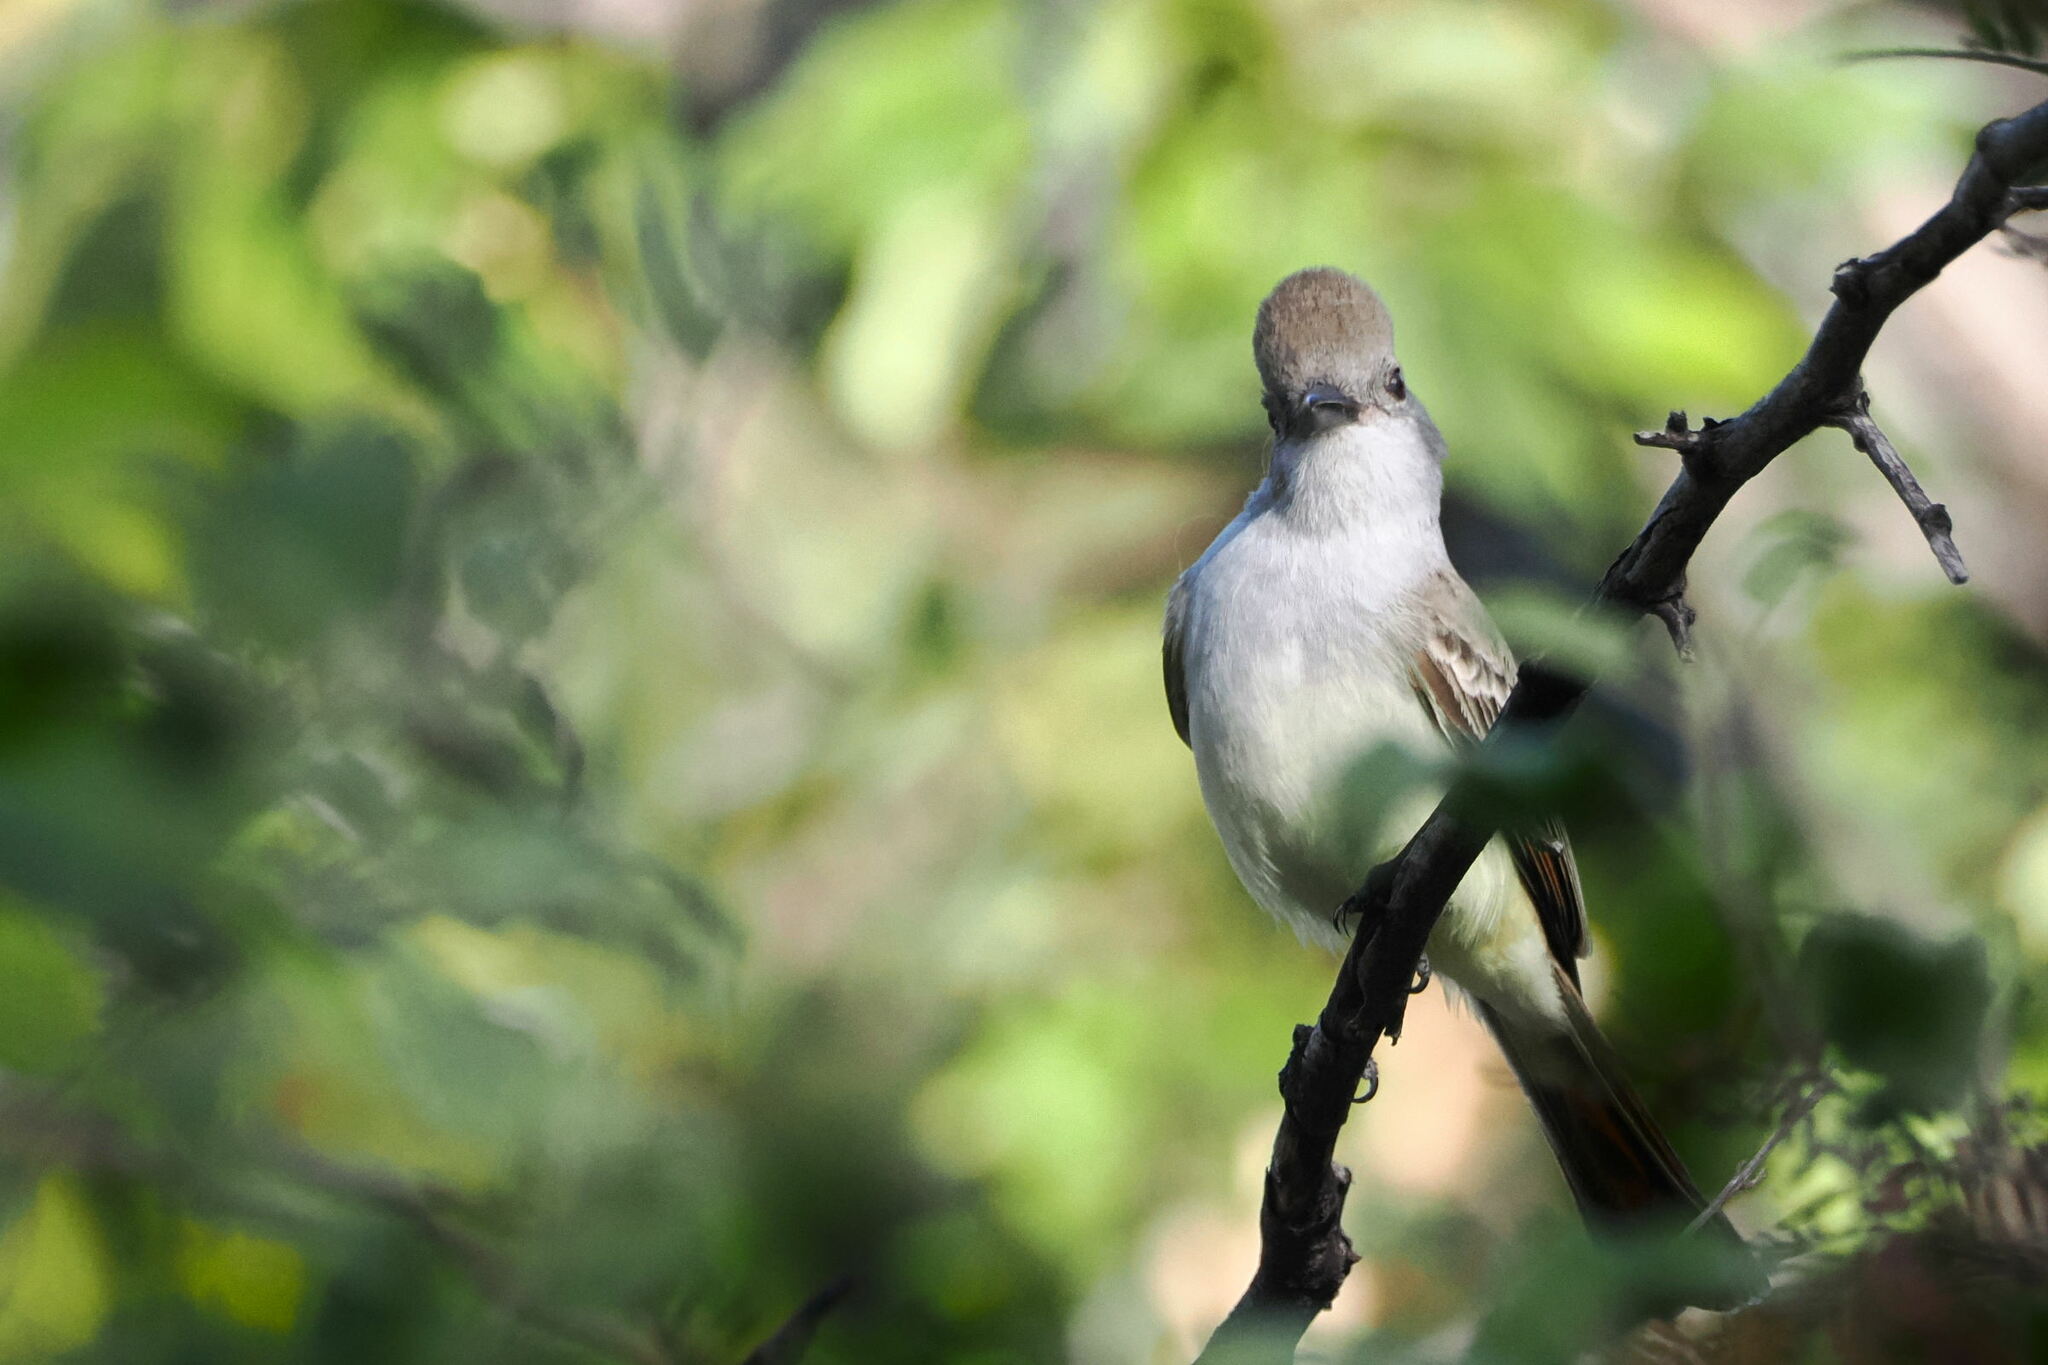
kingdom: Animalia
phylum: Chordata
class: Aves
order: Passeriformes
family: Tyrannidae
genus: Myiarchus
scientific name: Myiarchus cinerascens
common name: Ash-throated flycatcher
